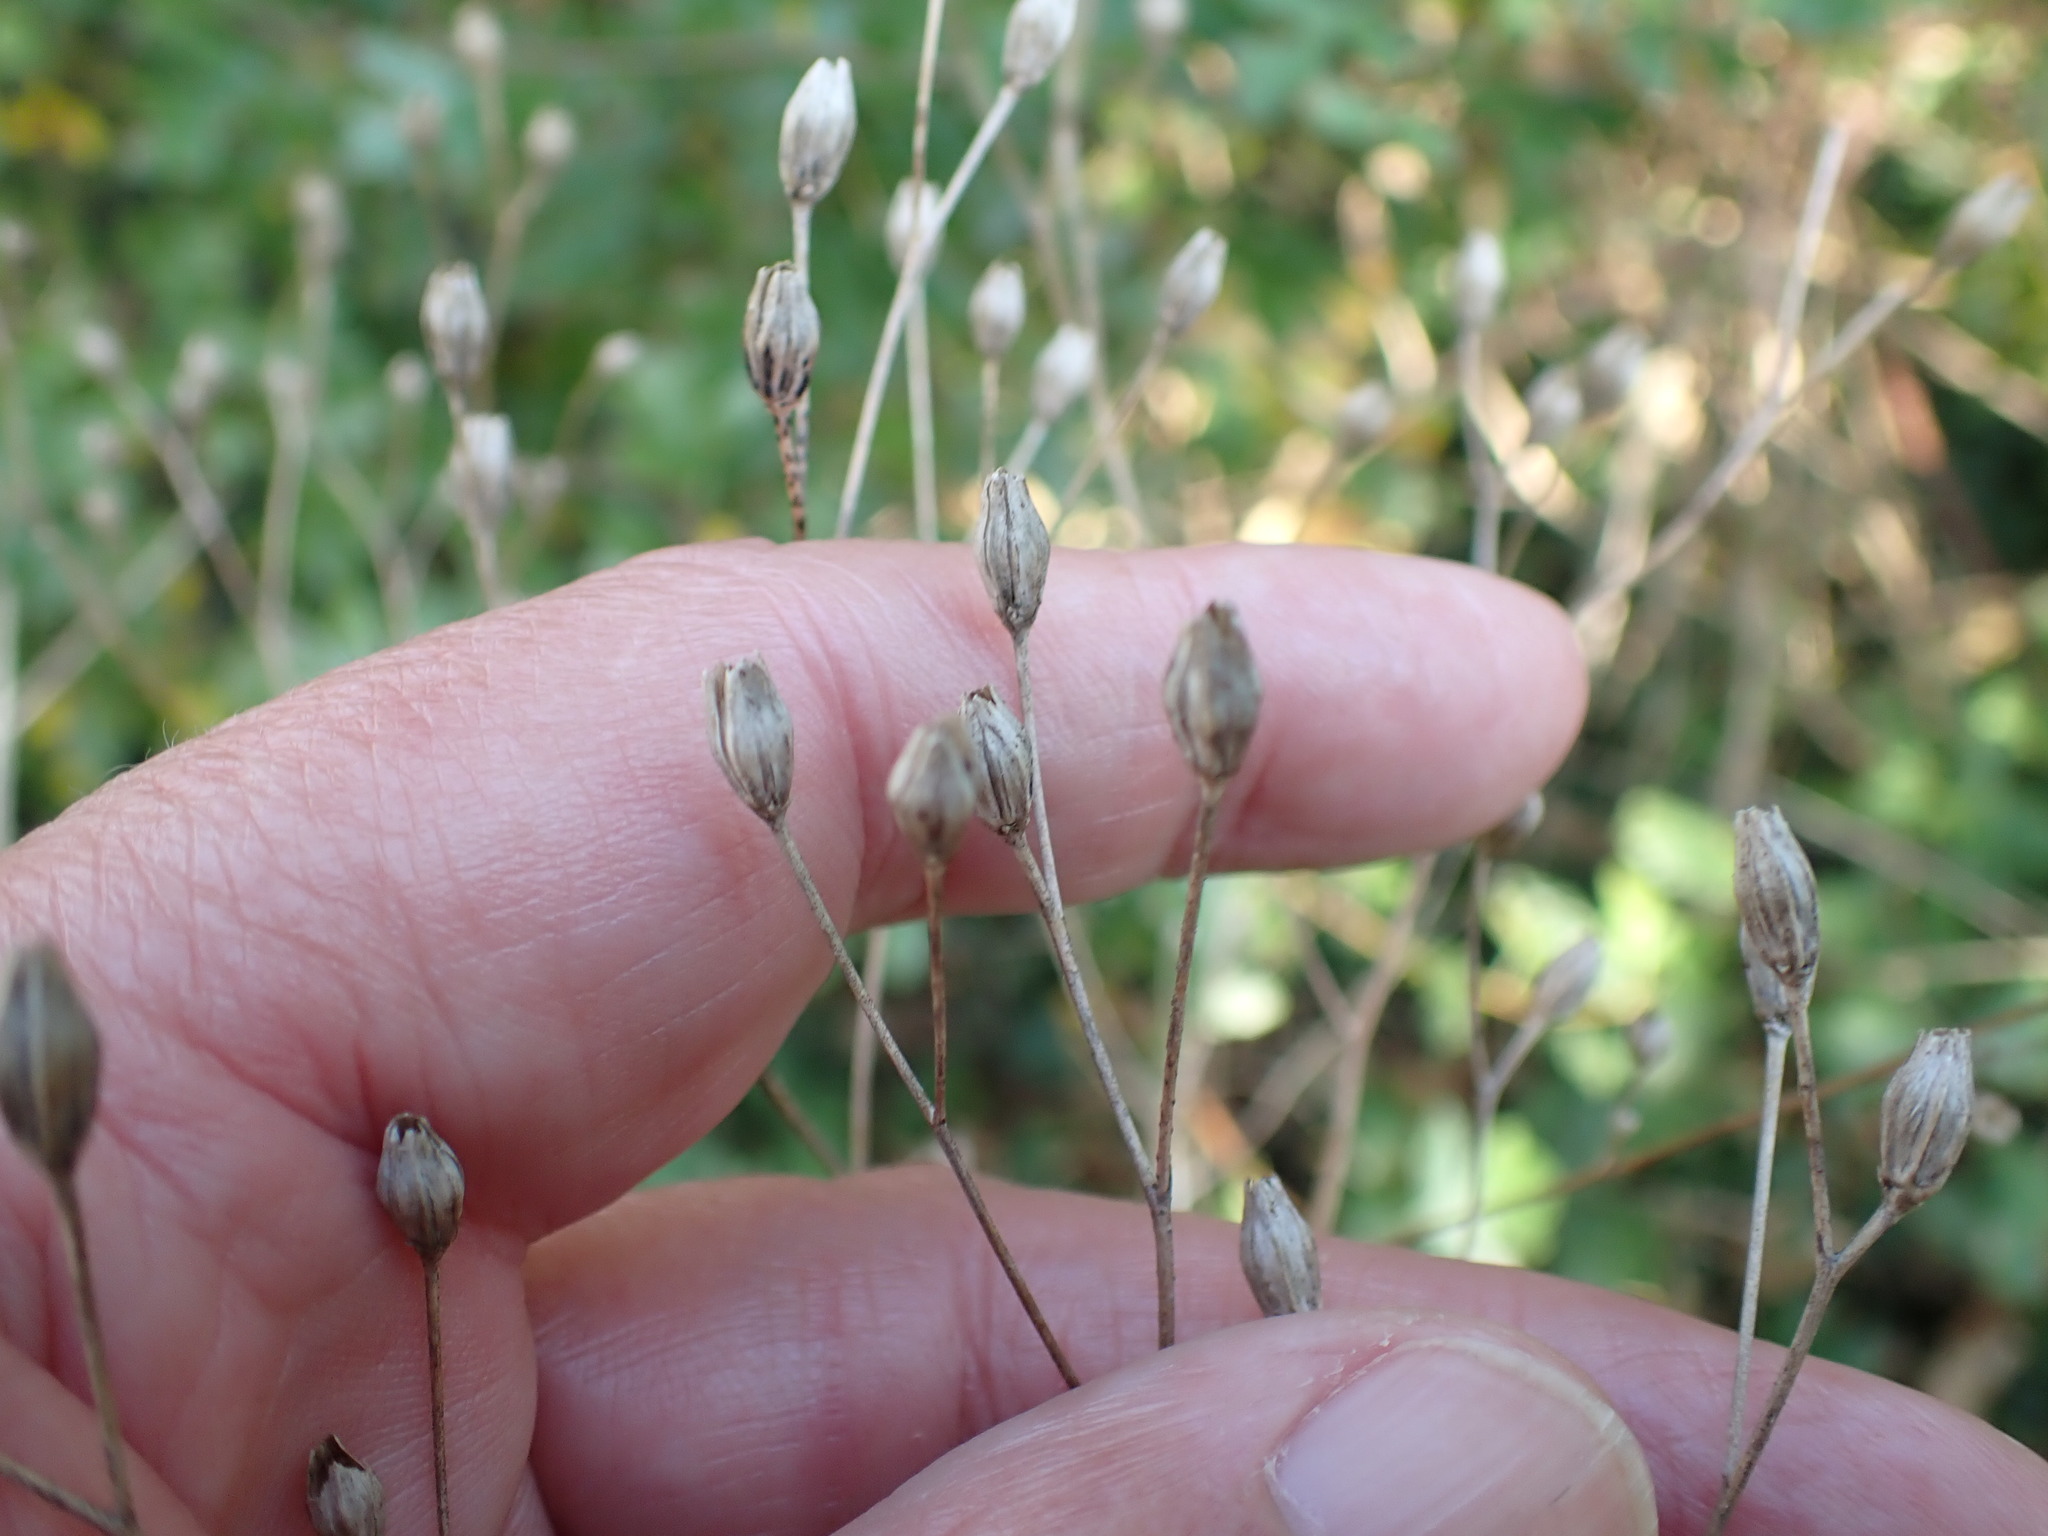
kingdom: Plantae
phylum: Tracheophyta
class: Magnoliopsida
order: Asterales
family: Asteraceae
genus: Lapsana
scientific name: Lapsana communis
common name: Nipplewort
